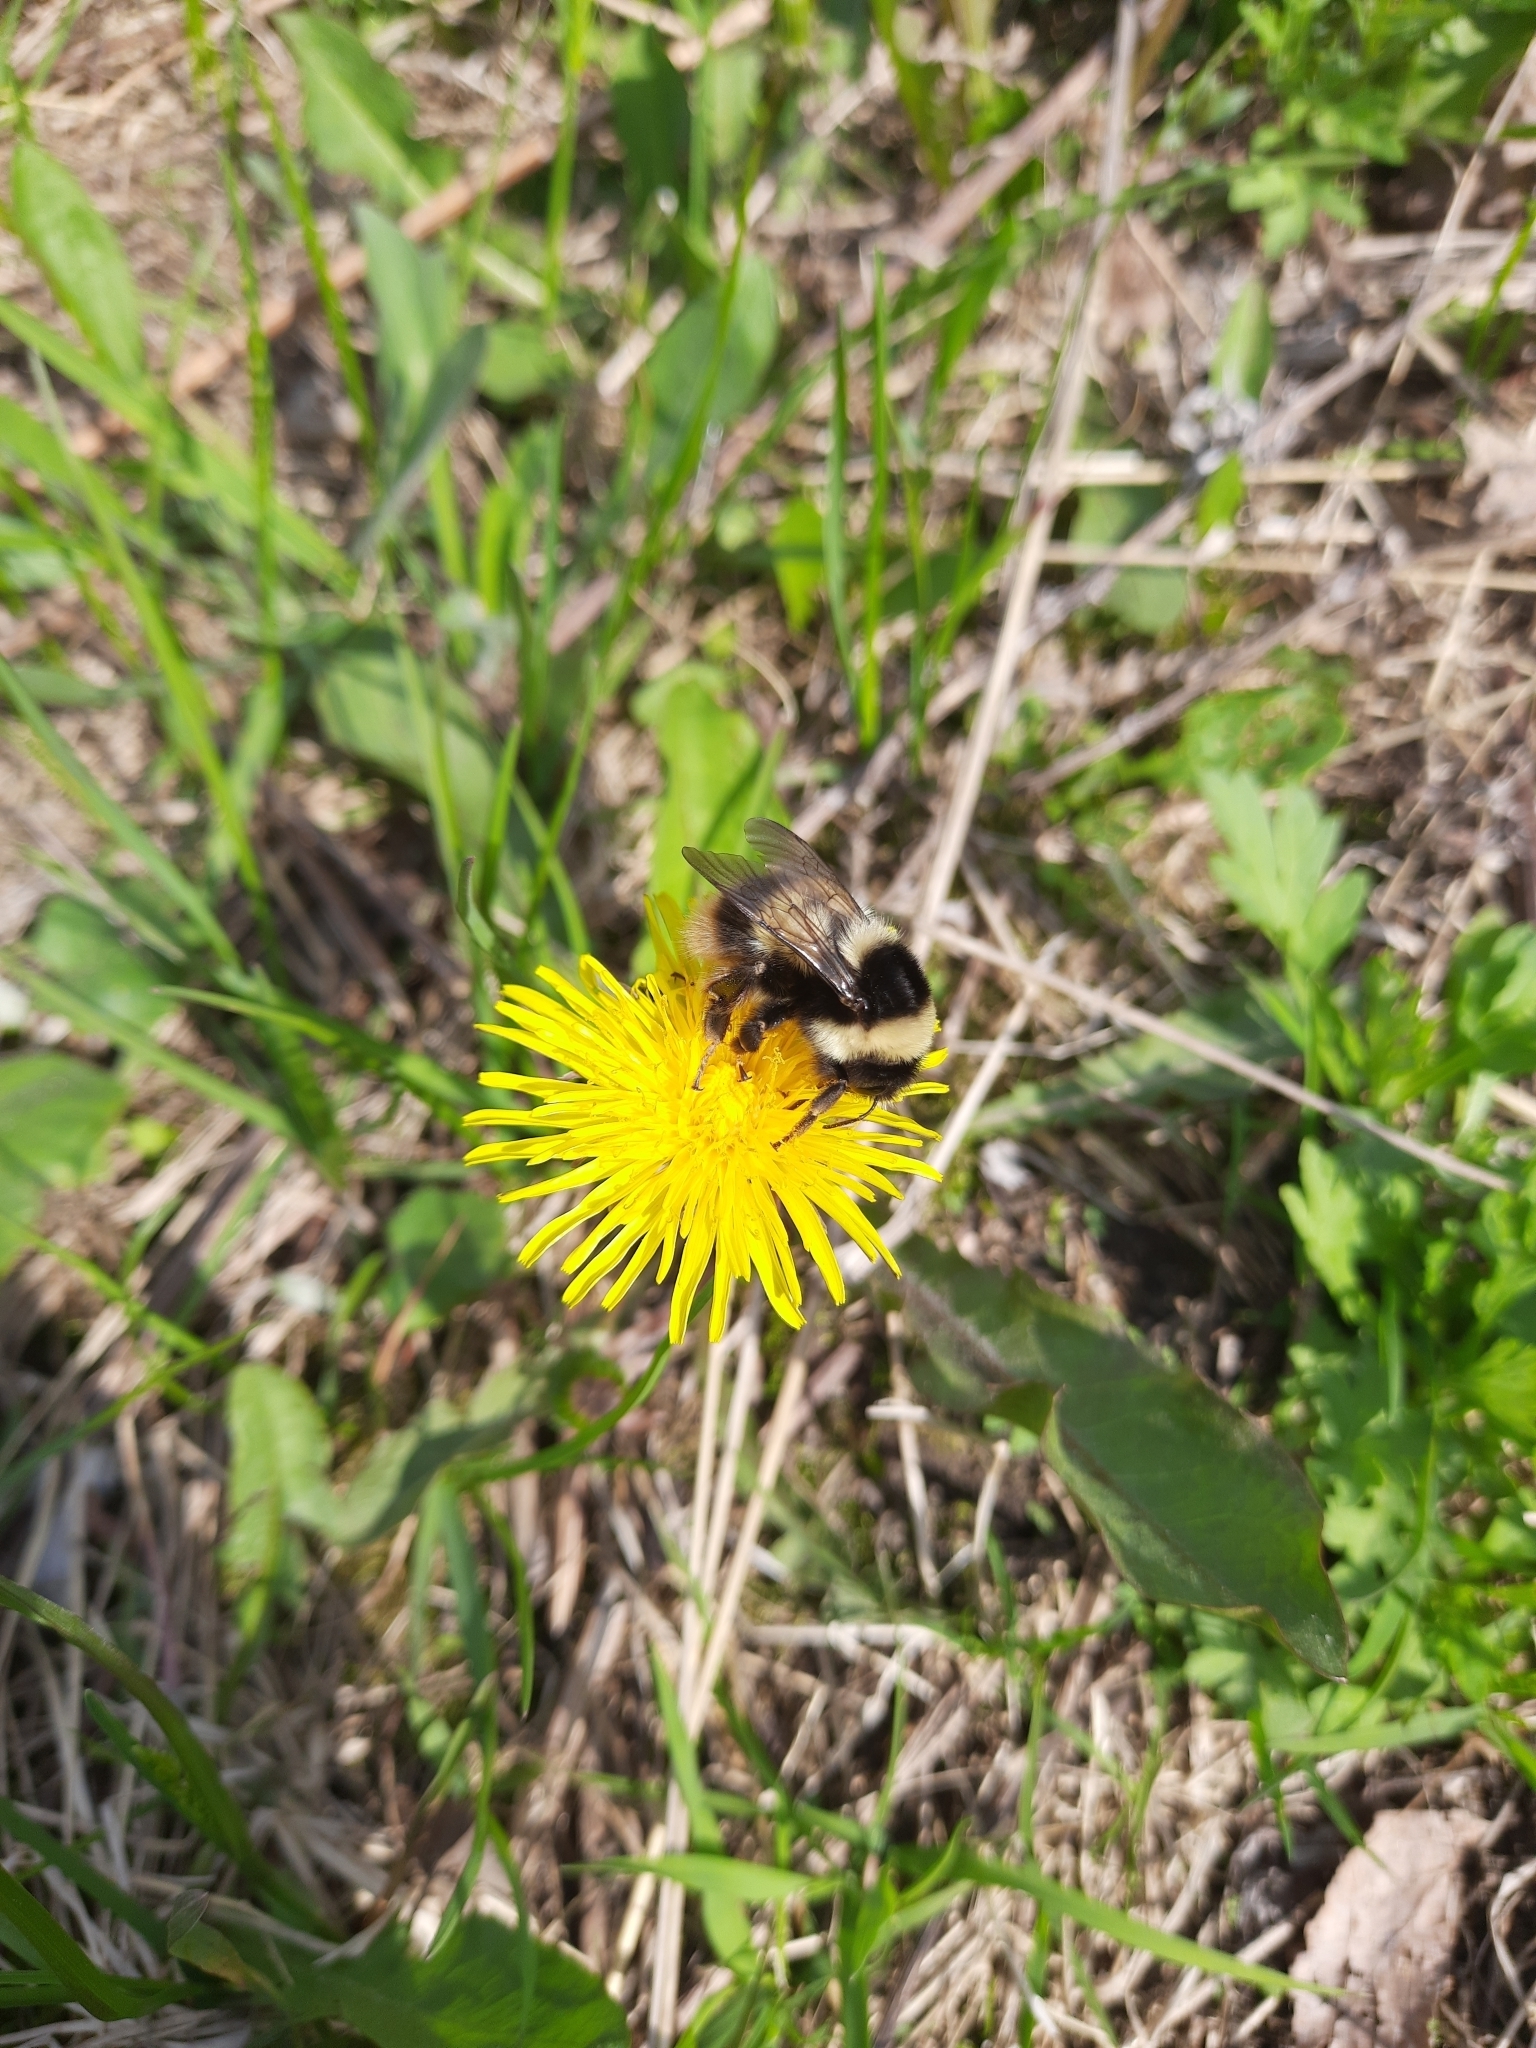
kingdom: Animalia
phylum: Arthropoda
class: Insecta
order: Hymenoptera
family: Apidae
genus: Bombus
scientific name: Bombus sichelii
